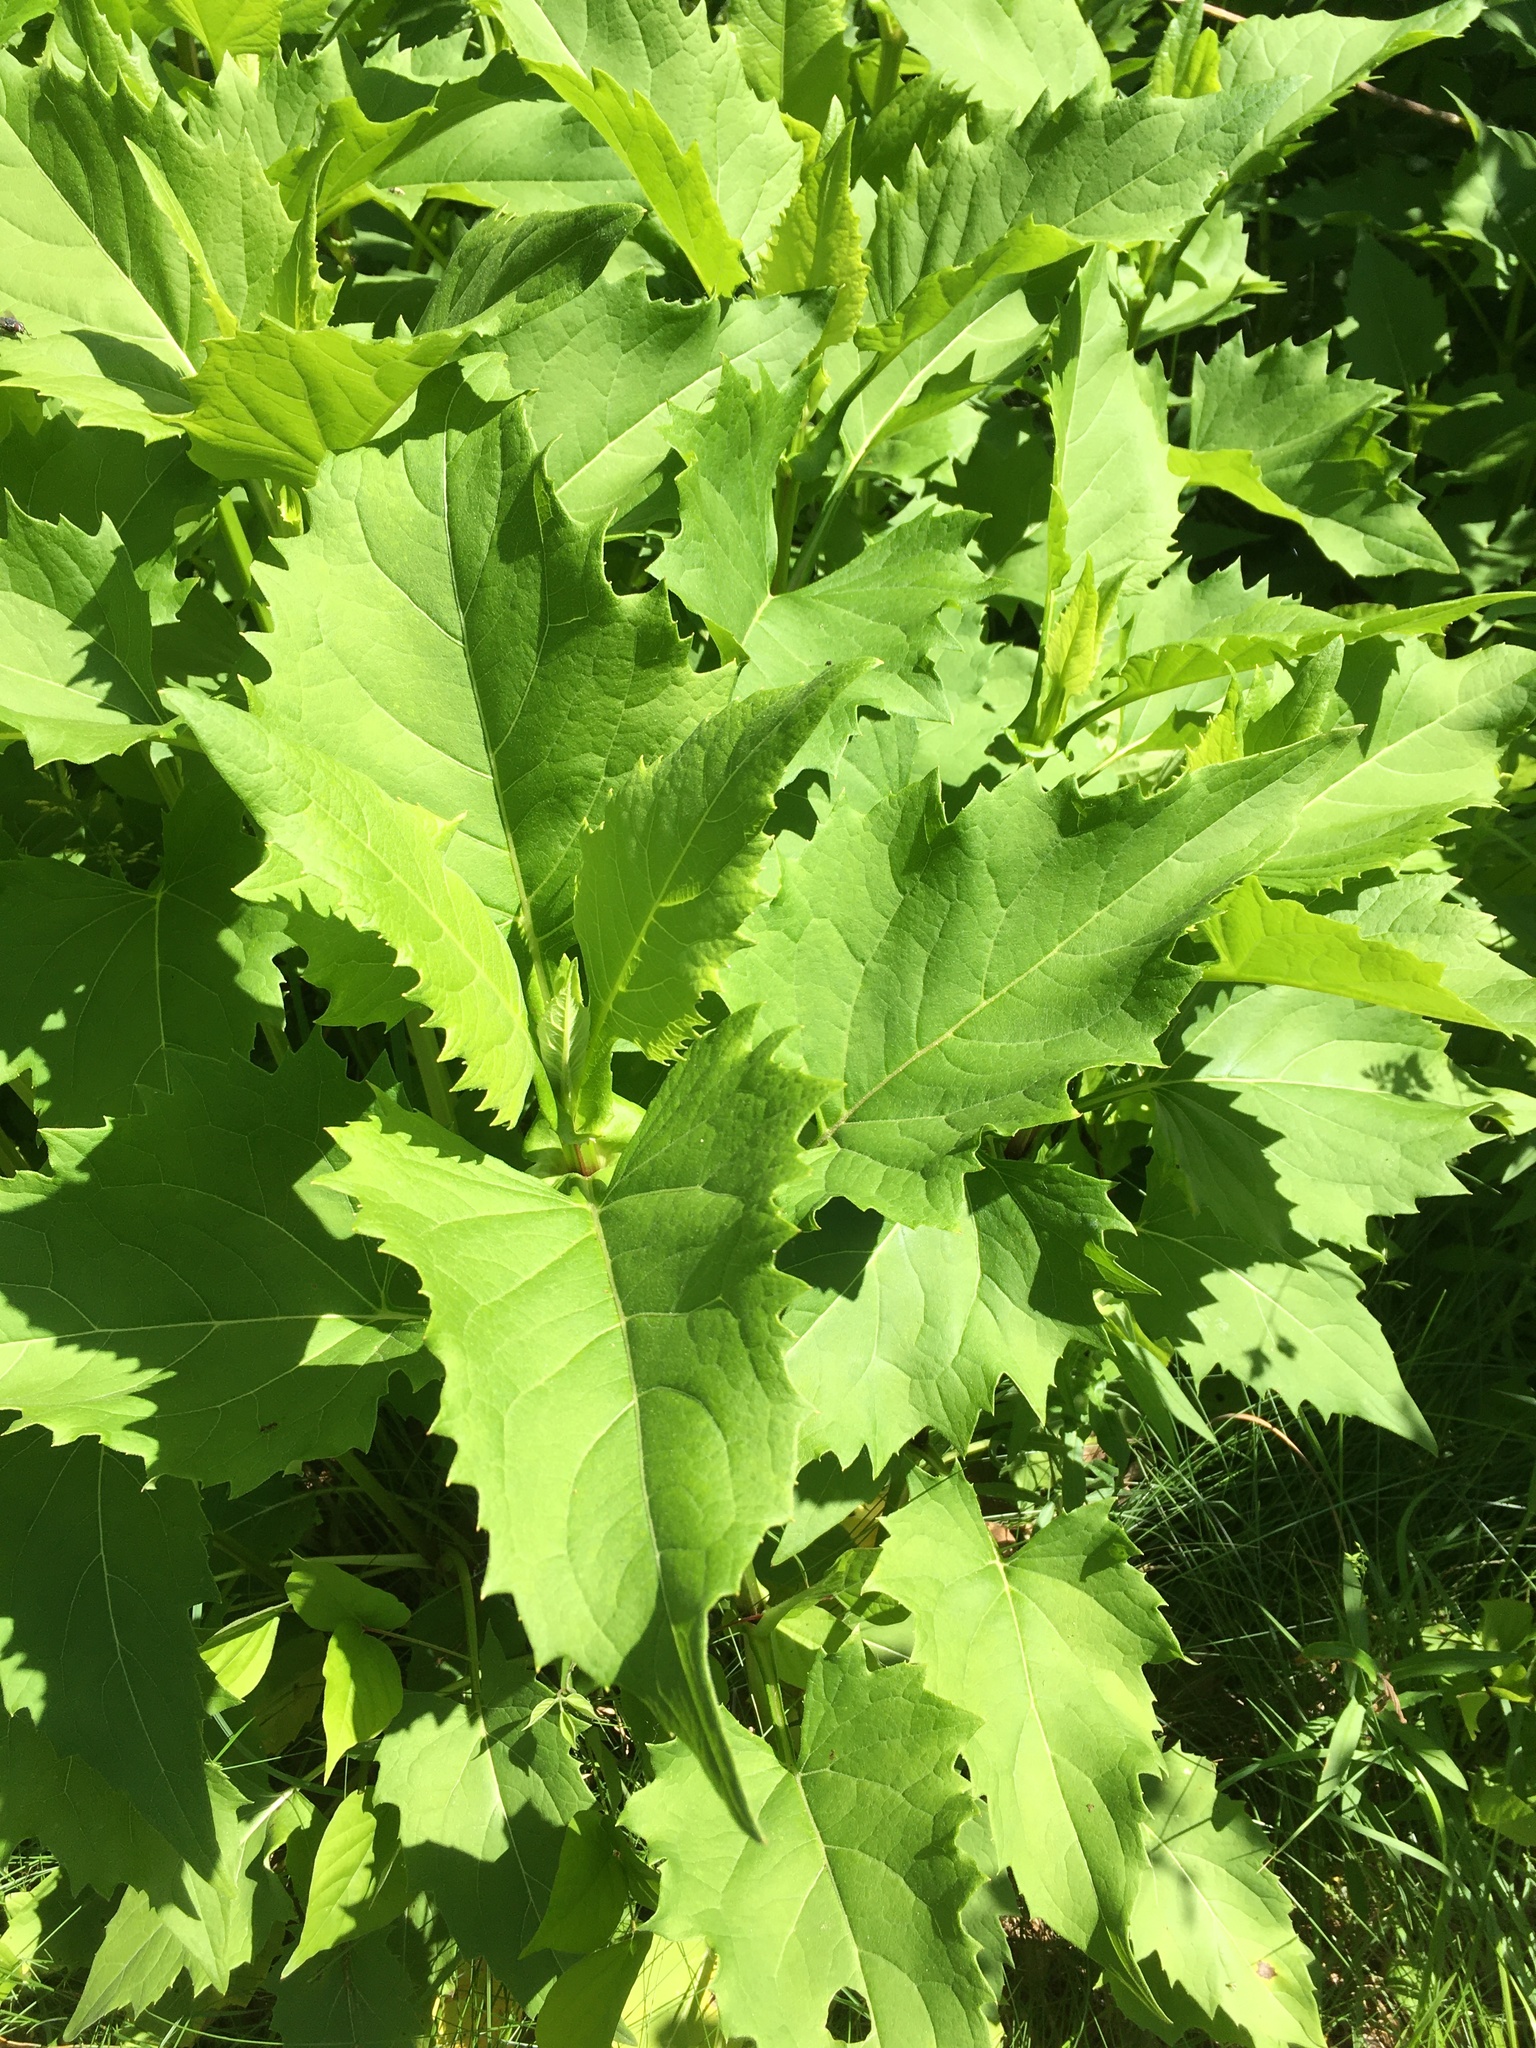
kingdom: Plantae
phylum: Tracheophyta
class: Magnoliopsida
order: Asterales
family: Asteraceae
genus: Silphium
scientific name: Silphium perfoliatum
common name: Cup-plant
